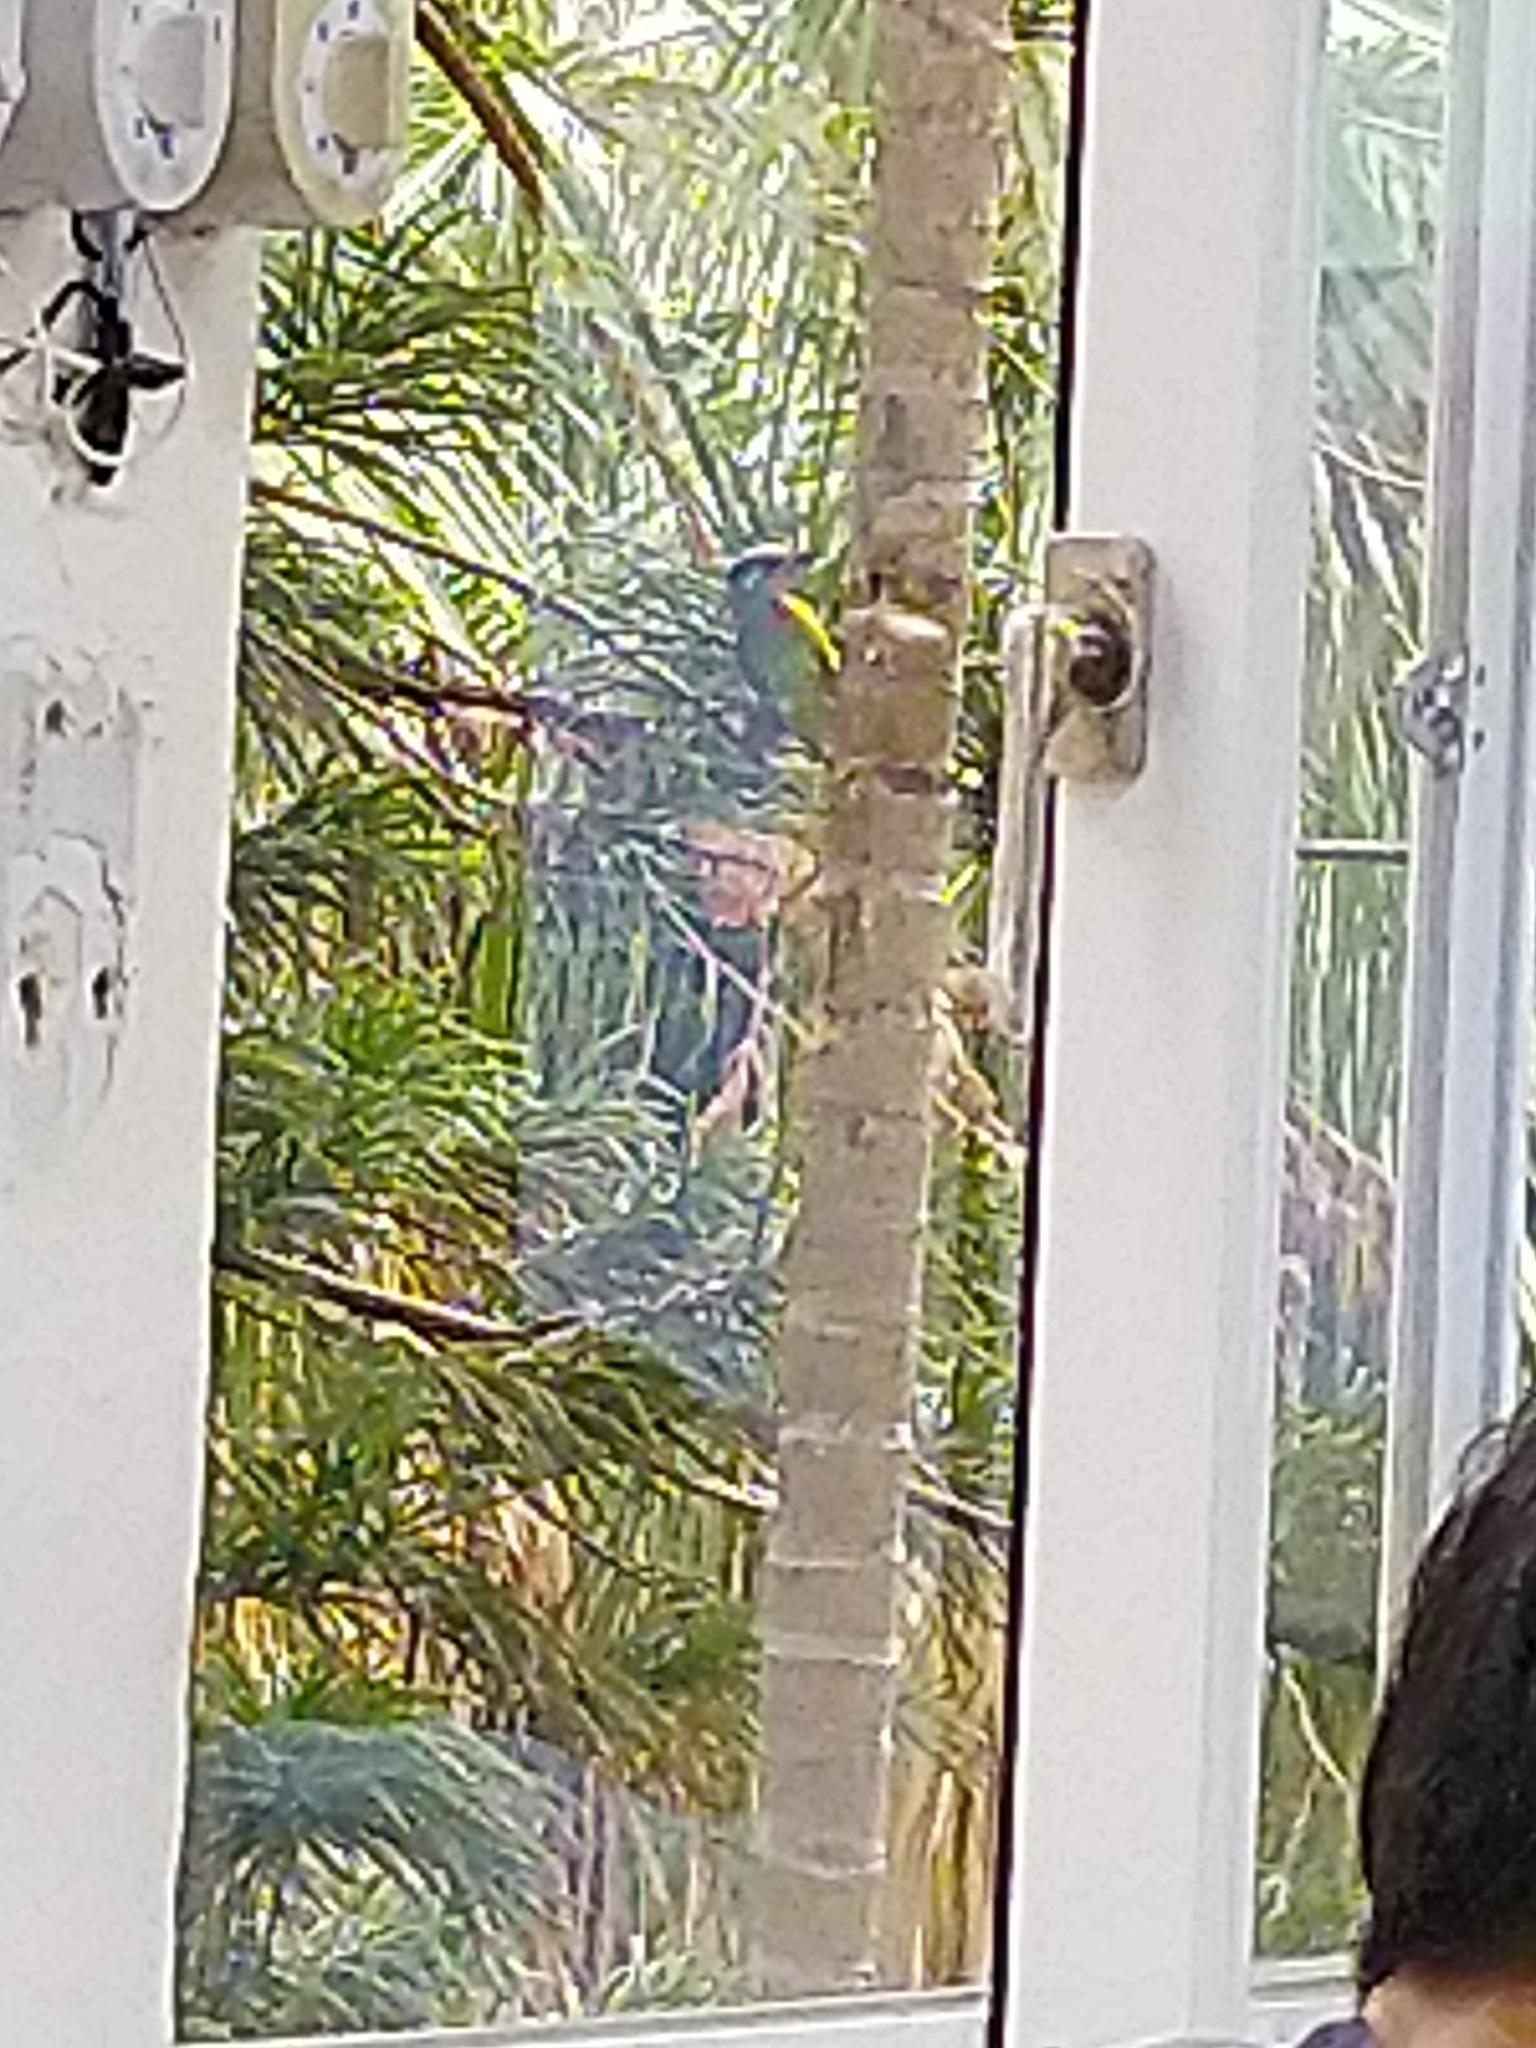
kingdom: Animalia
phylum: Chordata
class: Aves
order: Piciformes
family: Megalaimidae
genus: Psilopogon
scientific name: Psilopogon nuchalis
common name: Taiwan barbet
